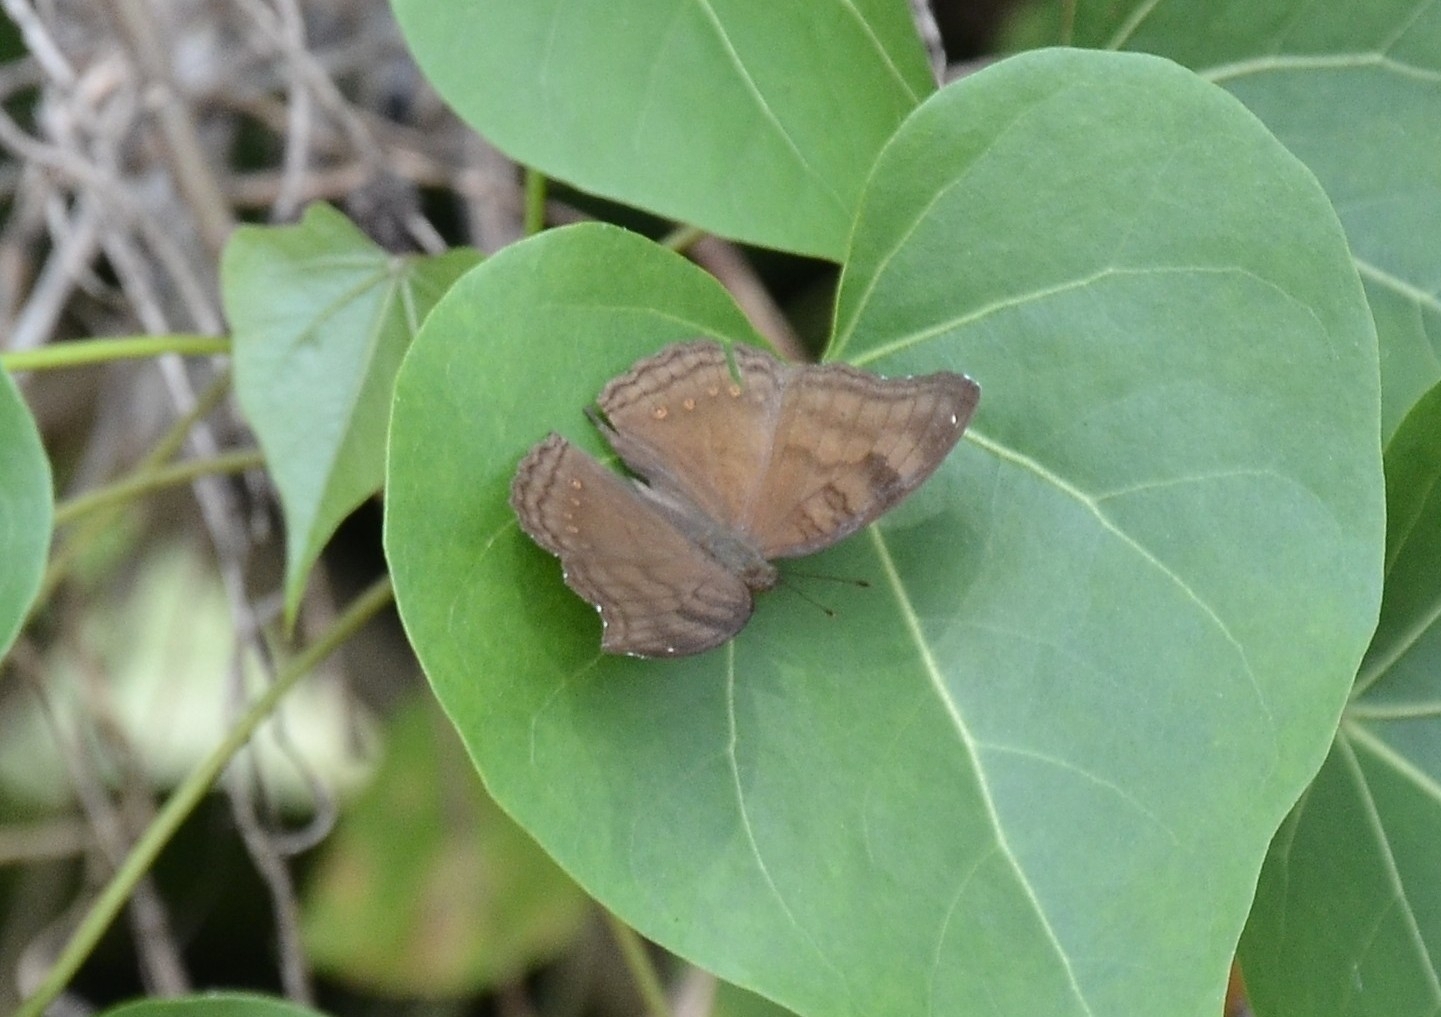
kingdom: Animalia
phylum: Arthropoda
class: Insecta
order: Lepidoptera
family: Nymphalidae
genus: Junonia
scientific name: Junonia iphita
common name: Chocolate pansy
